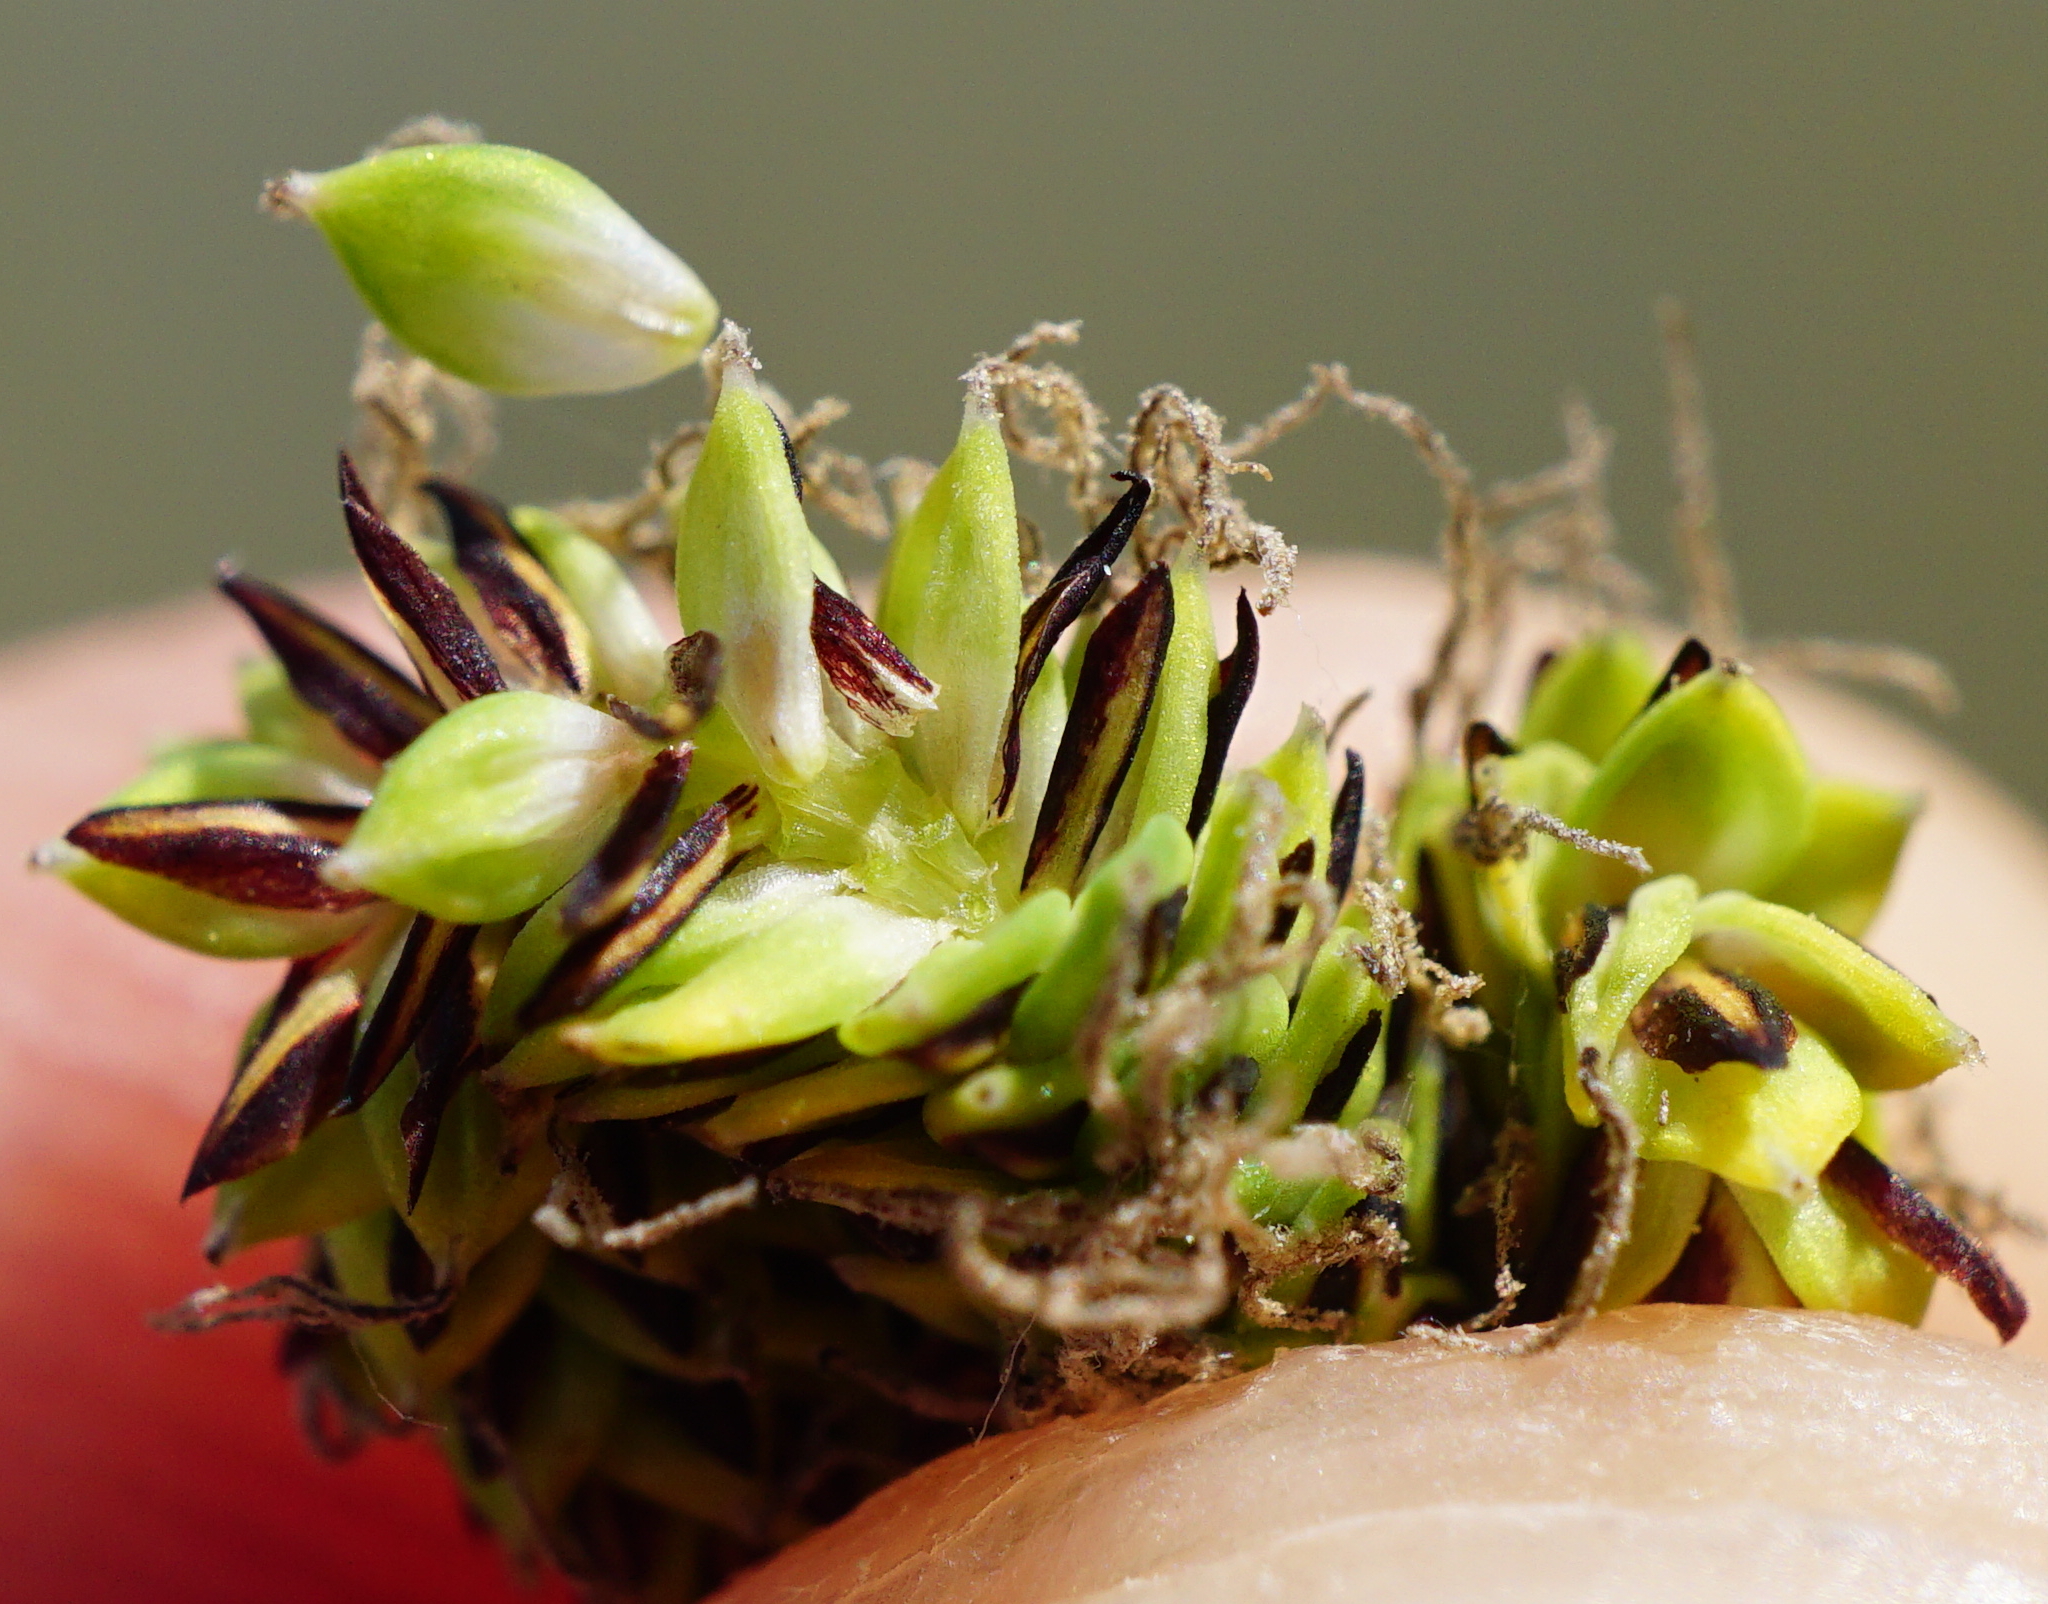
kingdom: Plantae
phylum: Tracheophyta
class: Liliopsida
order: Poales
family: Cyperaceae
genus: Carex
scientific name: Carex buekii
